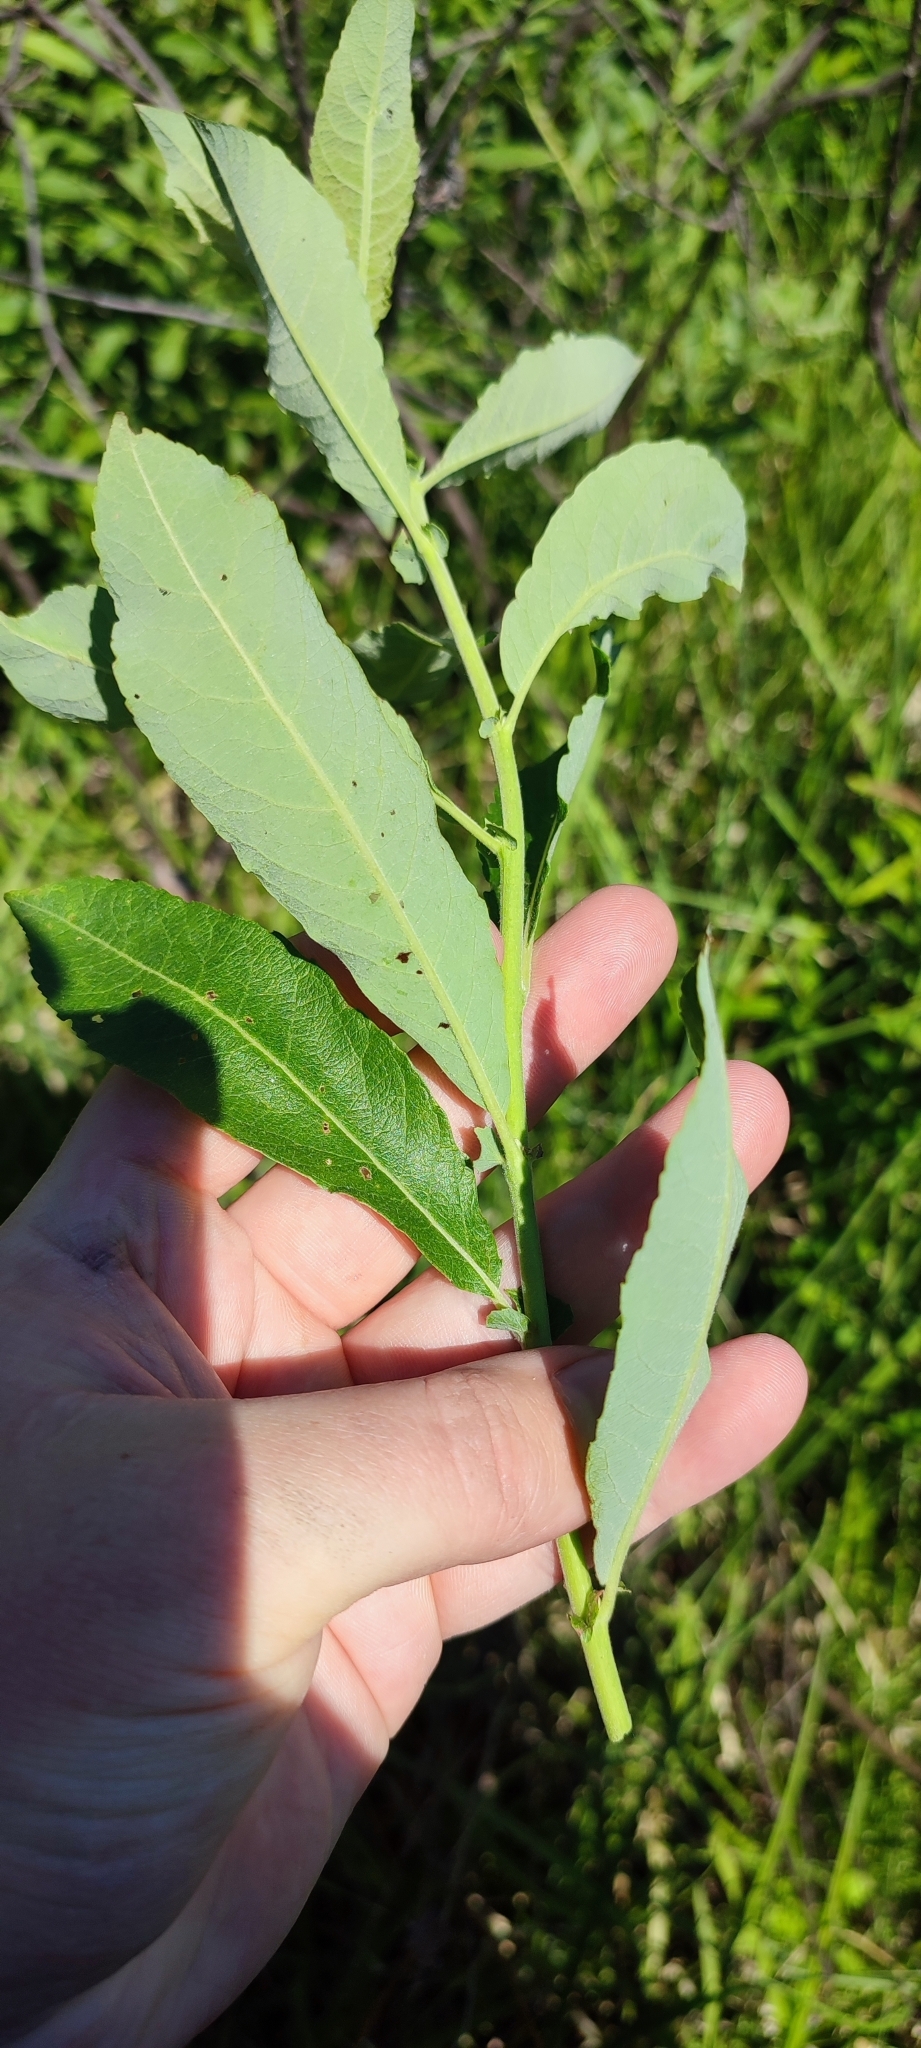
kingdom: Plantae
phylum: Tracheophyta
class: Magnoliopsida
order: Malpighiales
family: Salicaceae
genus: Salix
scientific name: Salix cinerea
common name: Common sallow
